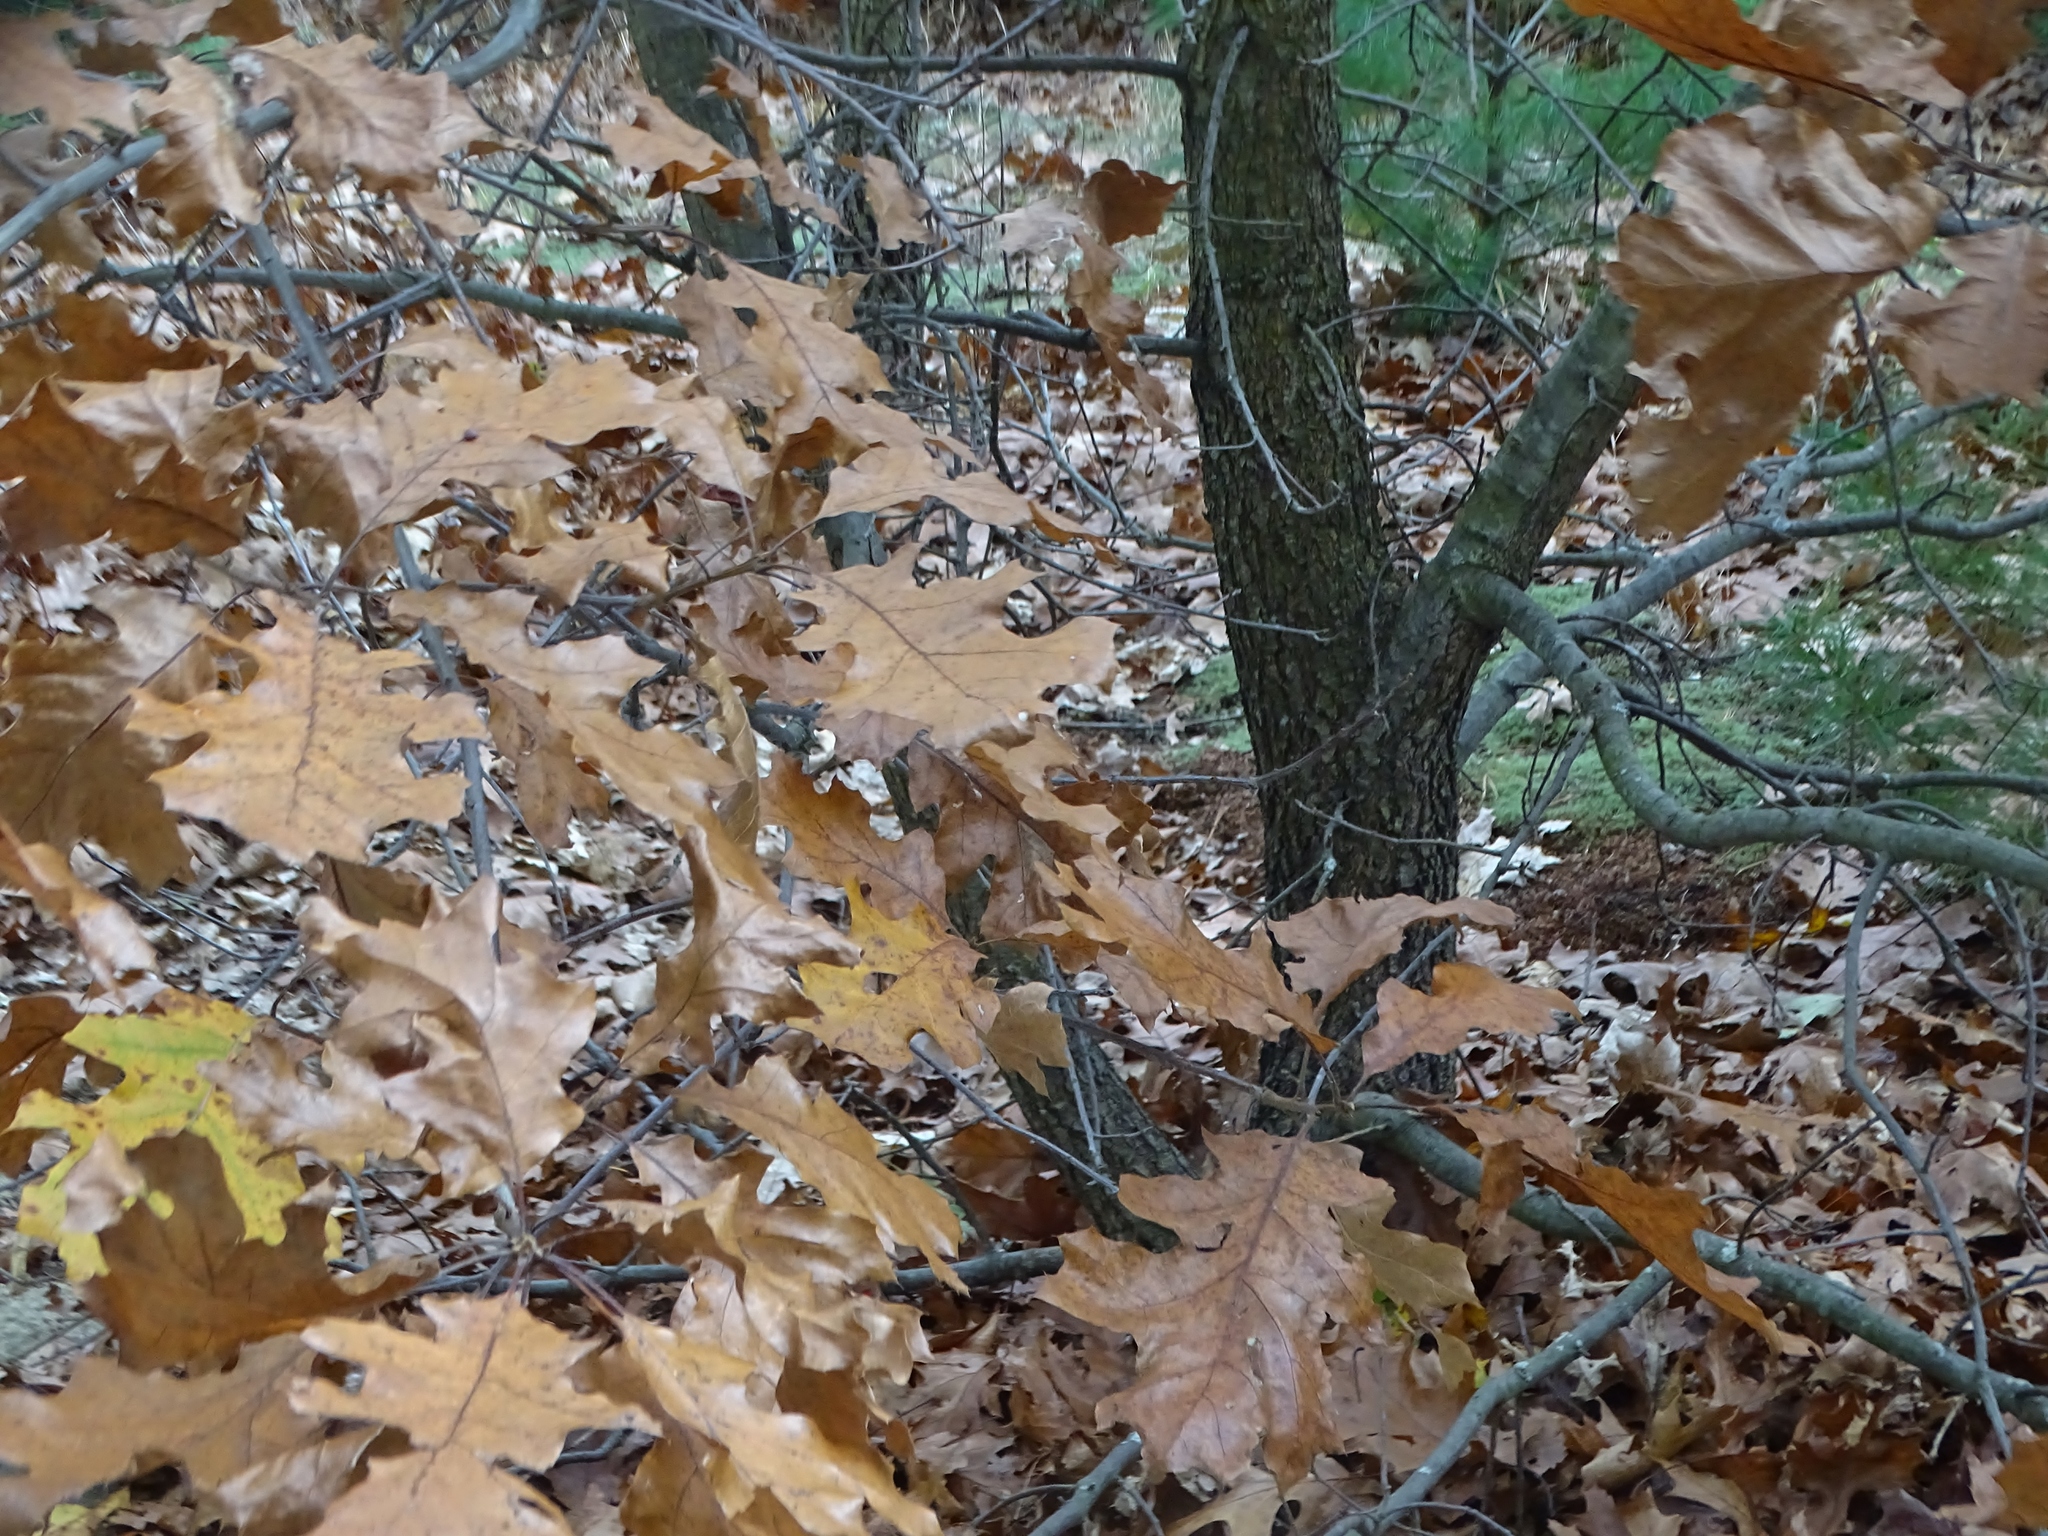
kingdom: Plantae
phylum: Tracheophyta
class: Magnoliopsida
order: Fagales
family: Fagaceae
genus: Quercus
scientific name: Quercus velutina
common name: Black oak
